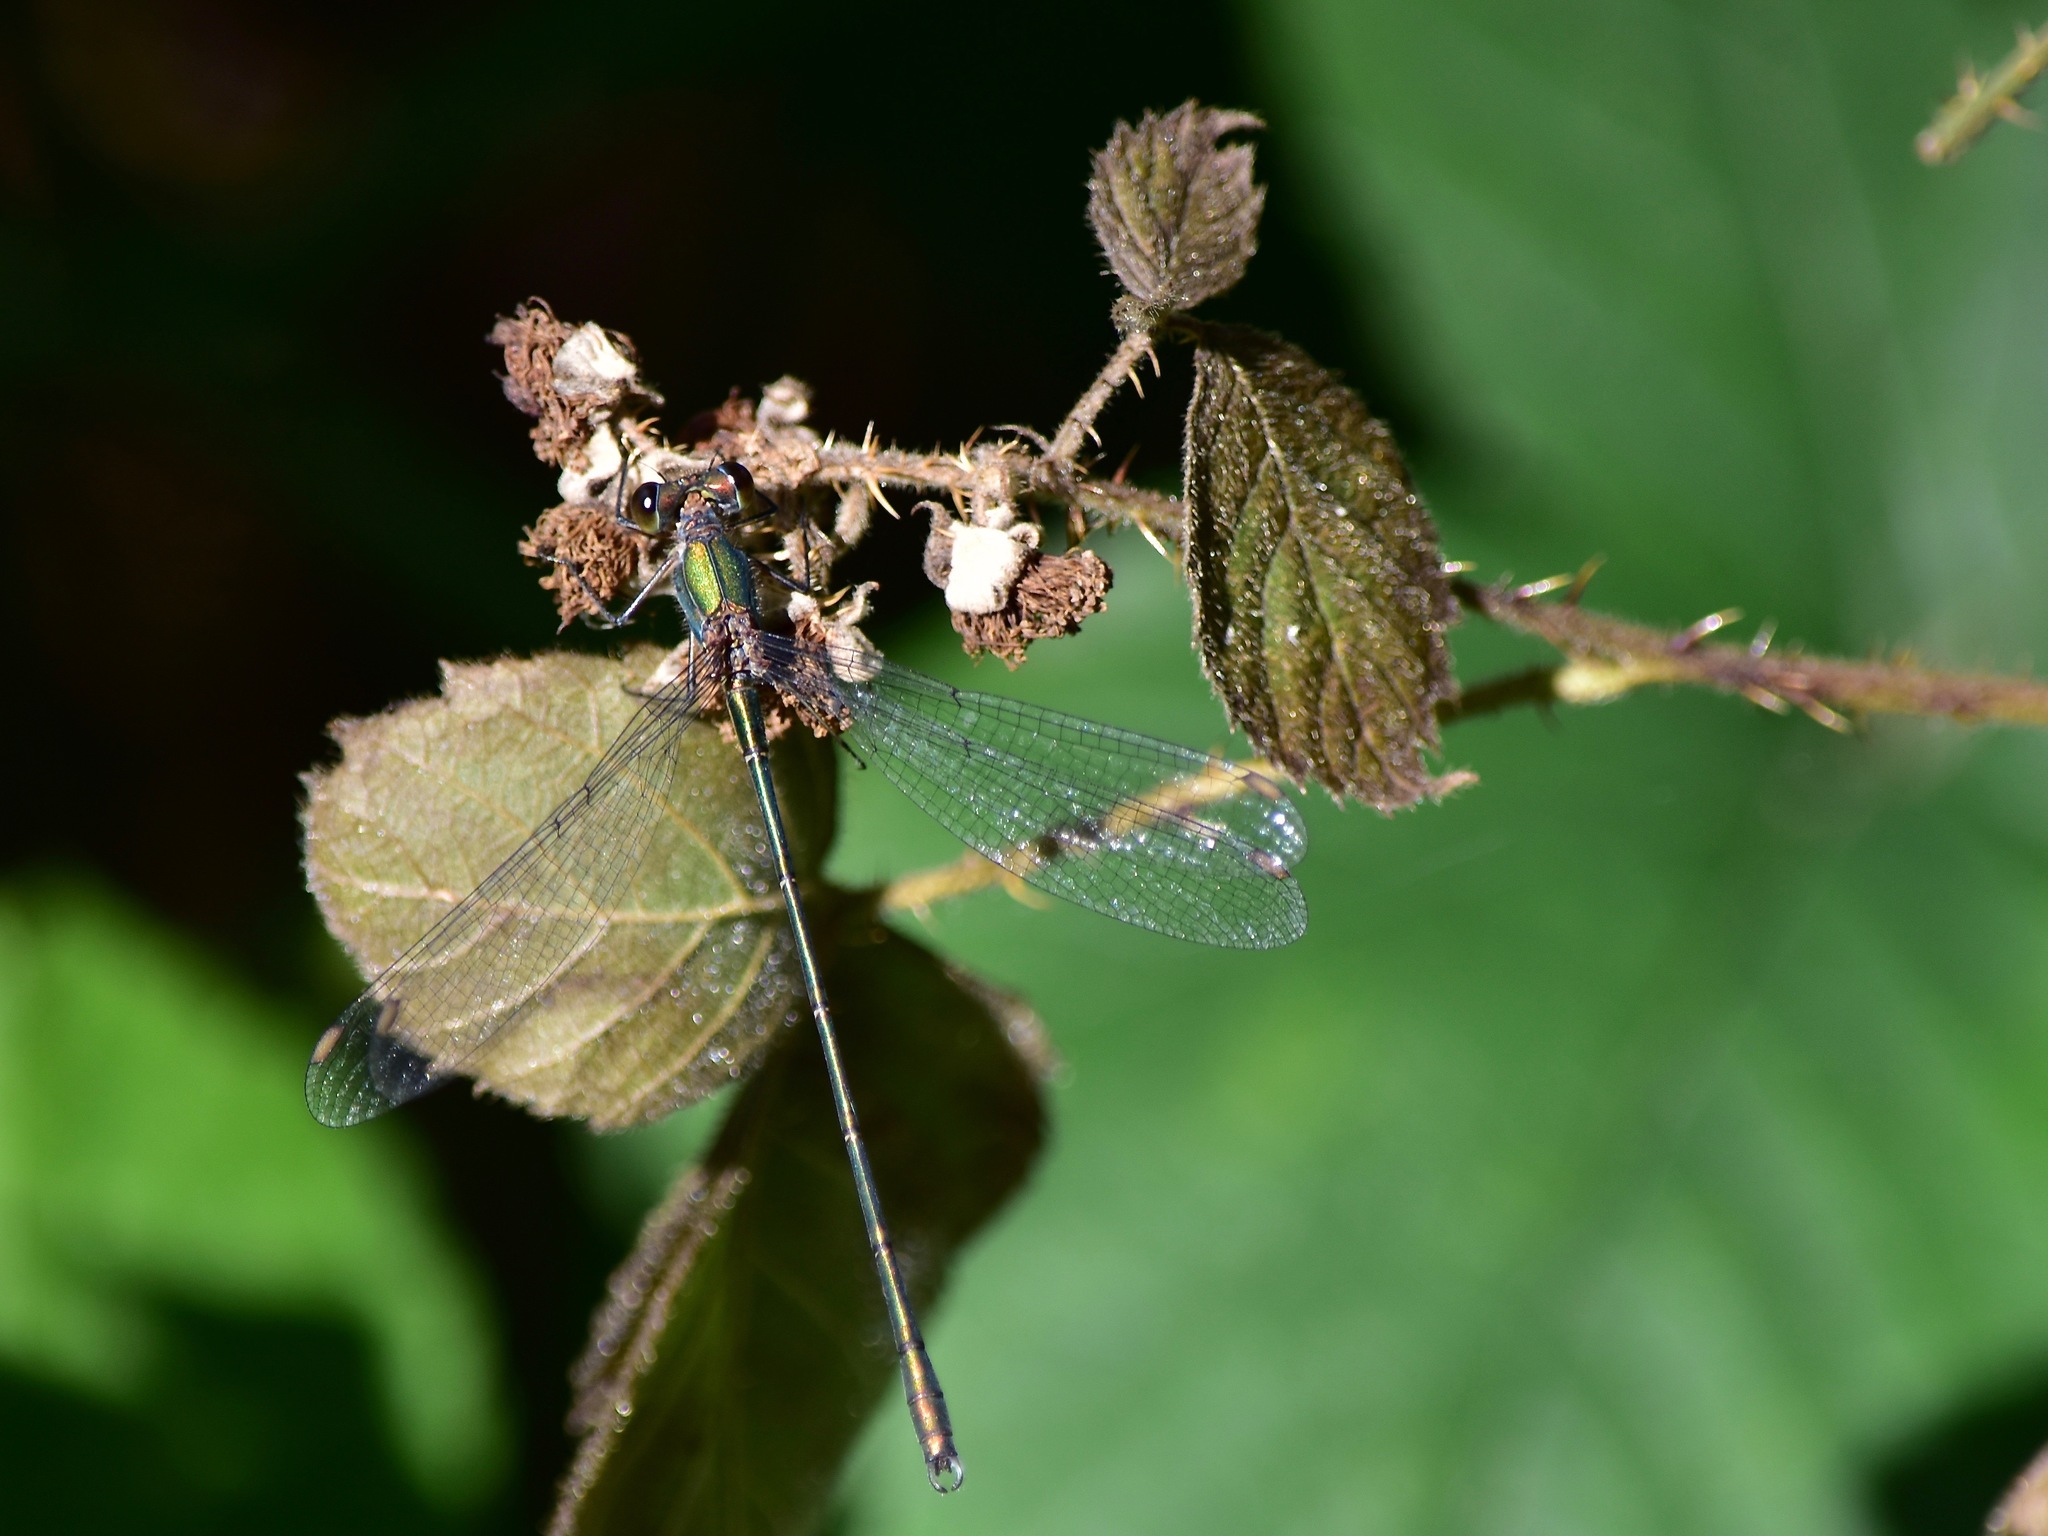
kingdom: Animalia
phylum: Arthropoda
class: Insecta
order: Odonata
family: Lestidae
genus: Chalcolestes
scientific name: Chalcolestes viridis
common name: Green emerald damselfly
